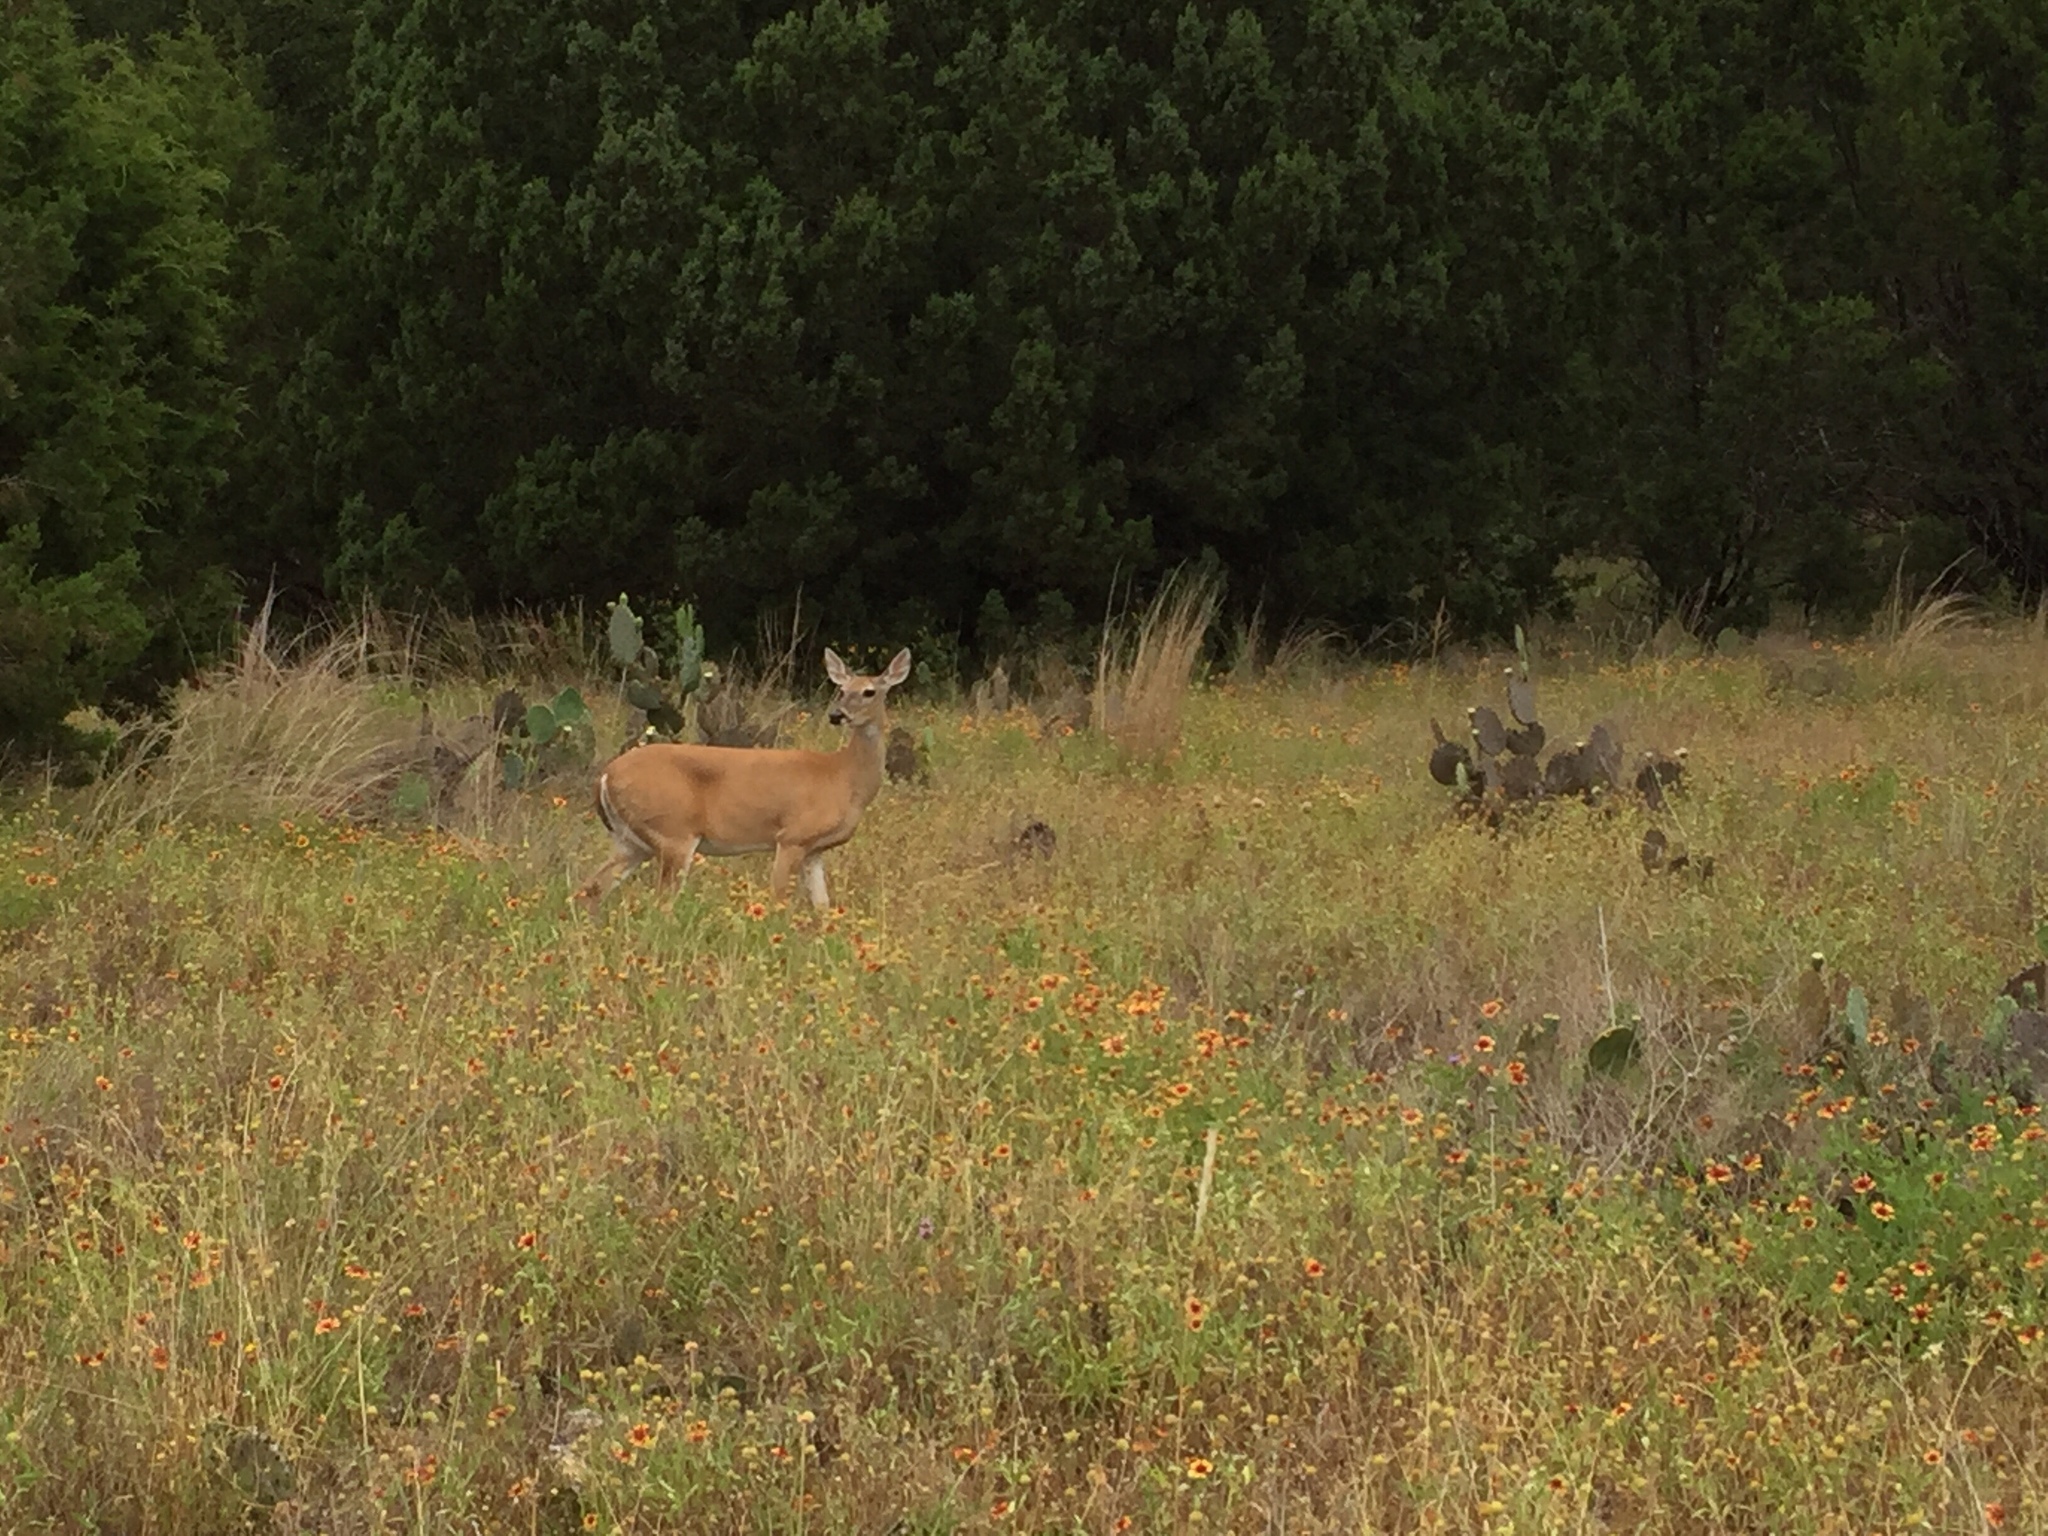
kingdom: Animalia
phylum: Chordata
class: Mammalia
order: Artiodactyla
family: Cervidae
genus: Odocoileus
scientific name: Odocoileus virginianus
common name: White-tailed deer
